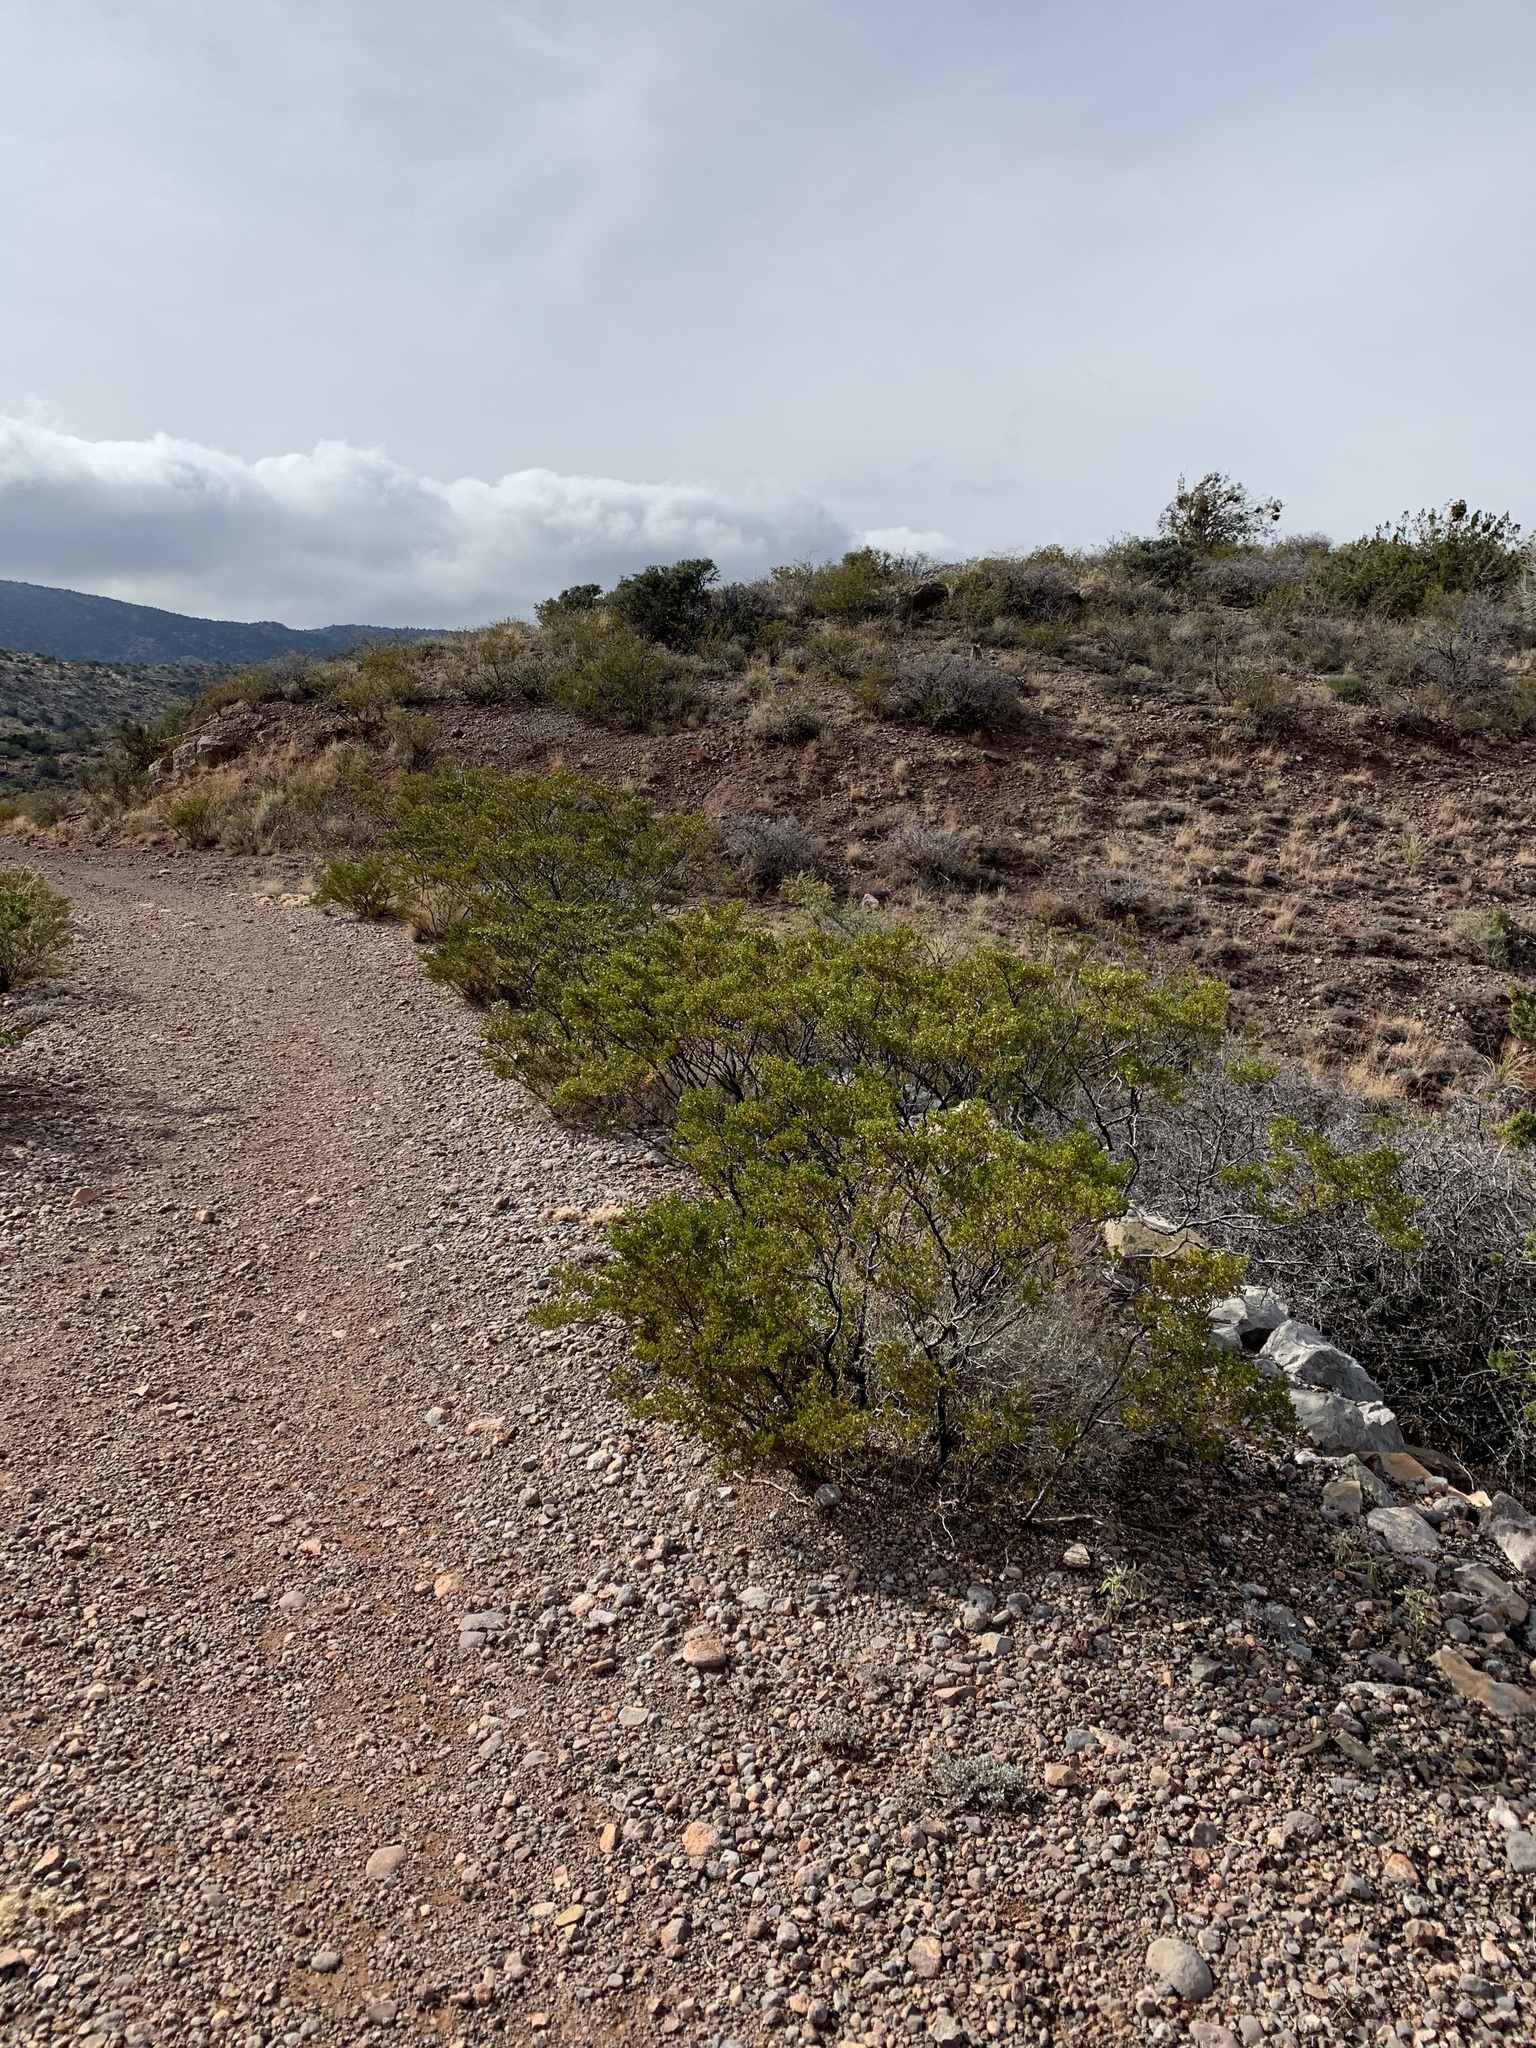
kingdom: Plantae
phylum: Tracheophyta
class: Magnoliopsida
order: Zygophyllales
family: Zygophyllaceae
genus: Larrea
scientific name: Larrea tridentata
